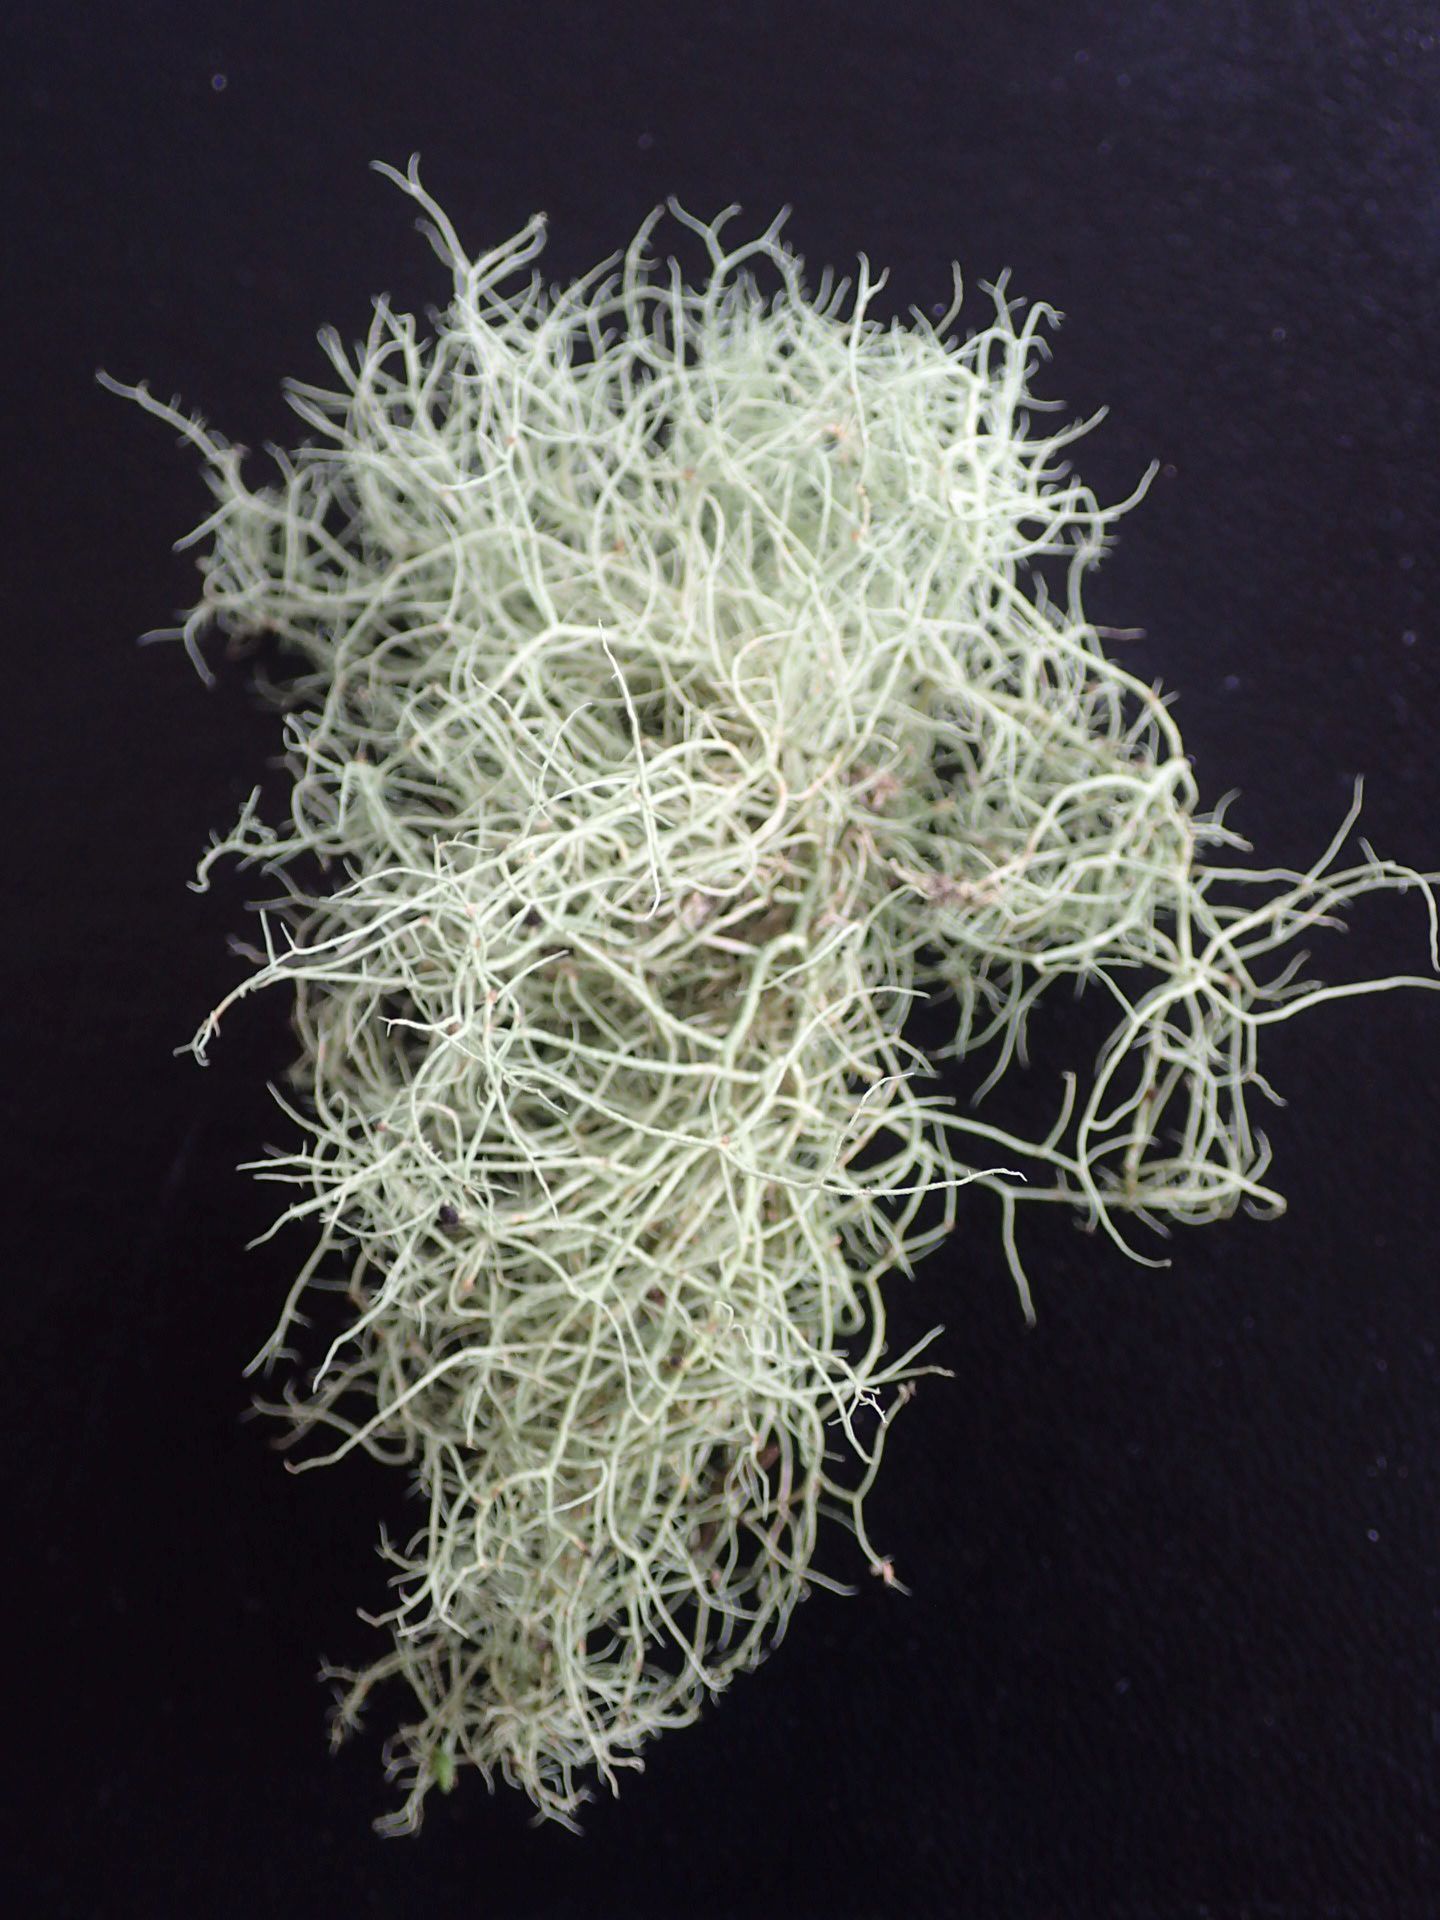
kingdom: Fungi
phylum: Ascomycota
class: Lecanoromycetes
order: Lecanorales
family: Parmeliaceae
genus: Usnea
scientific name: Usnea cornuta
